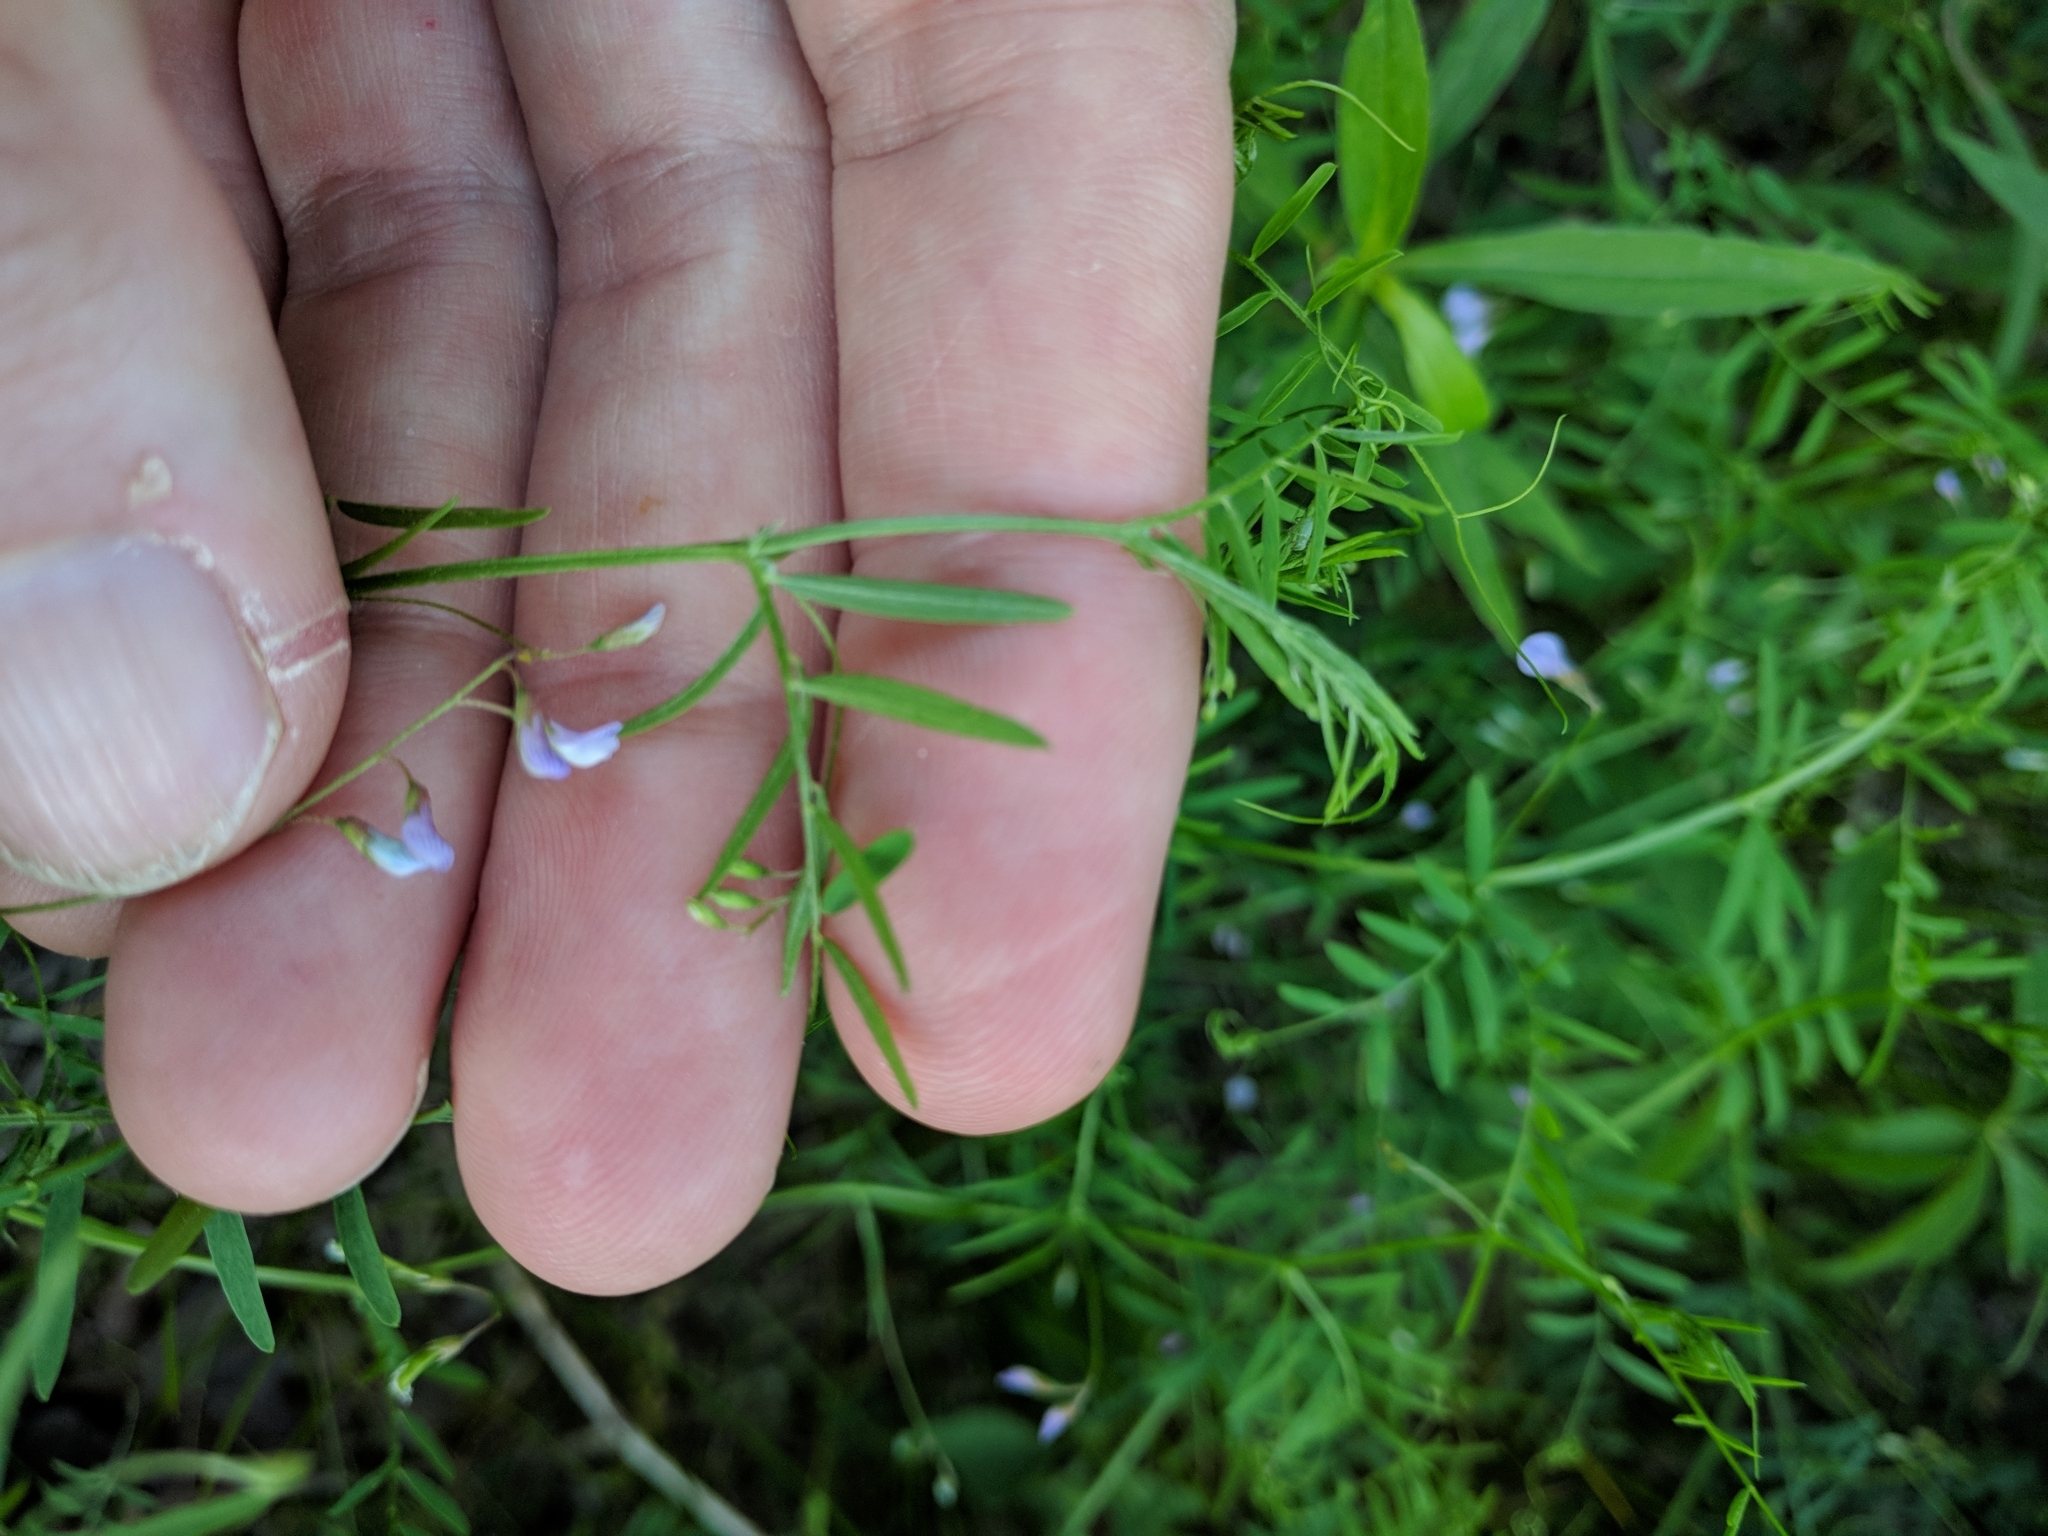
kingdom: Plantae
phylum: Tracheophyta
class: Magnoliopsida
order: Fabales
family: Fabaceae
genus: Vicia
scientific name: Vicia tetrasperma
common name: Smooth tare
